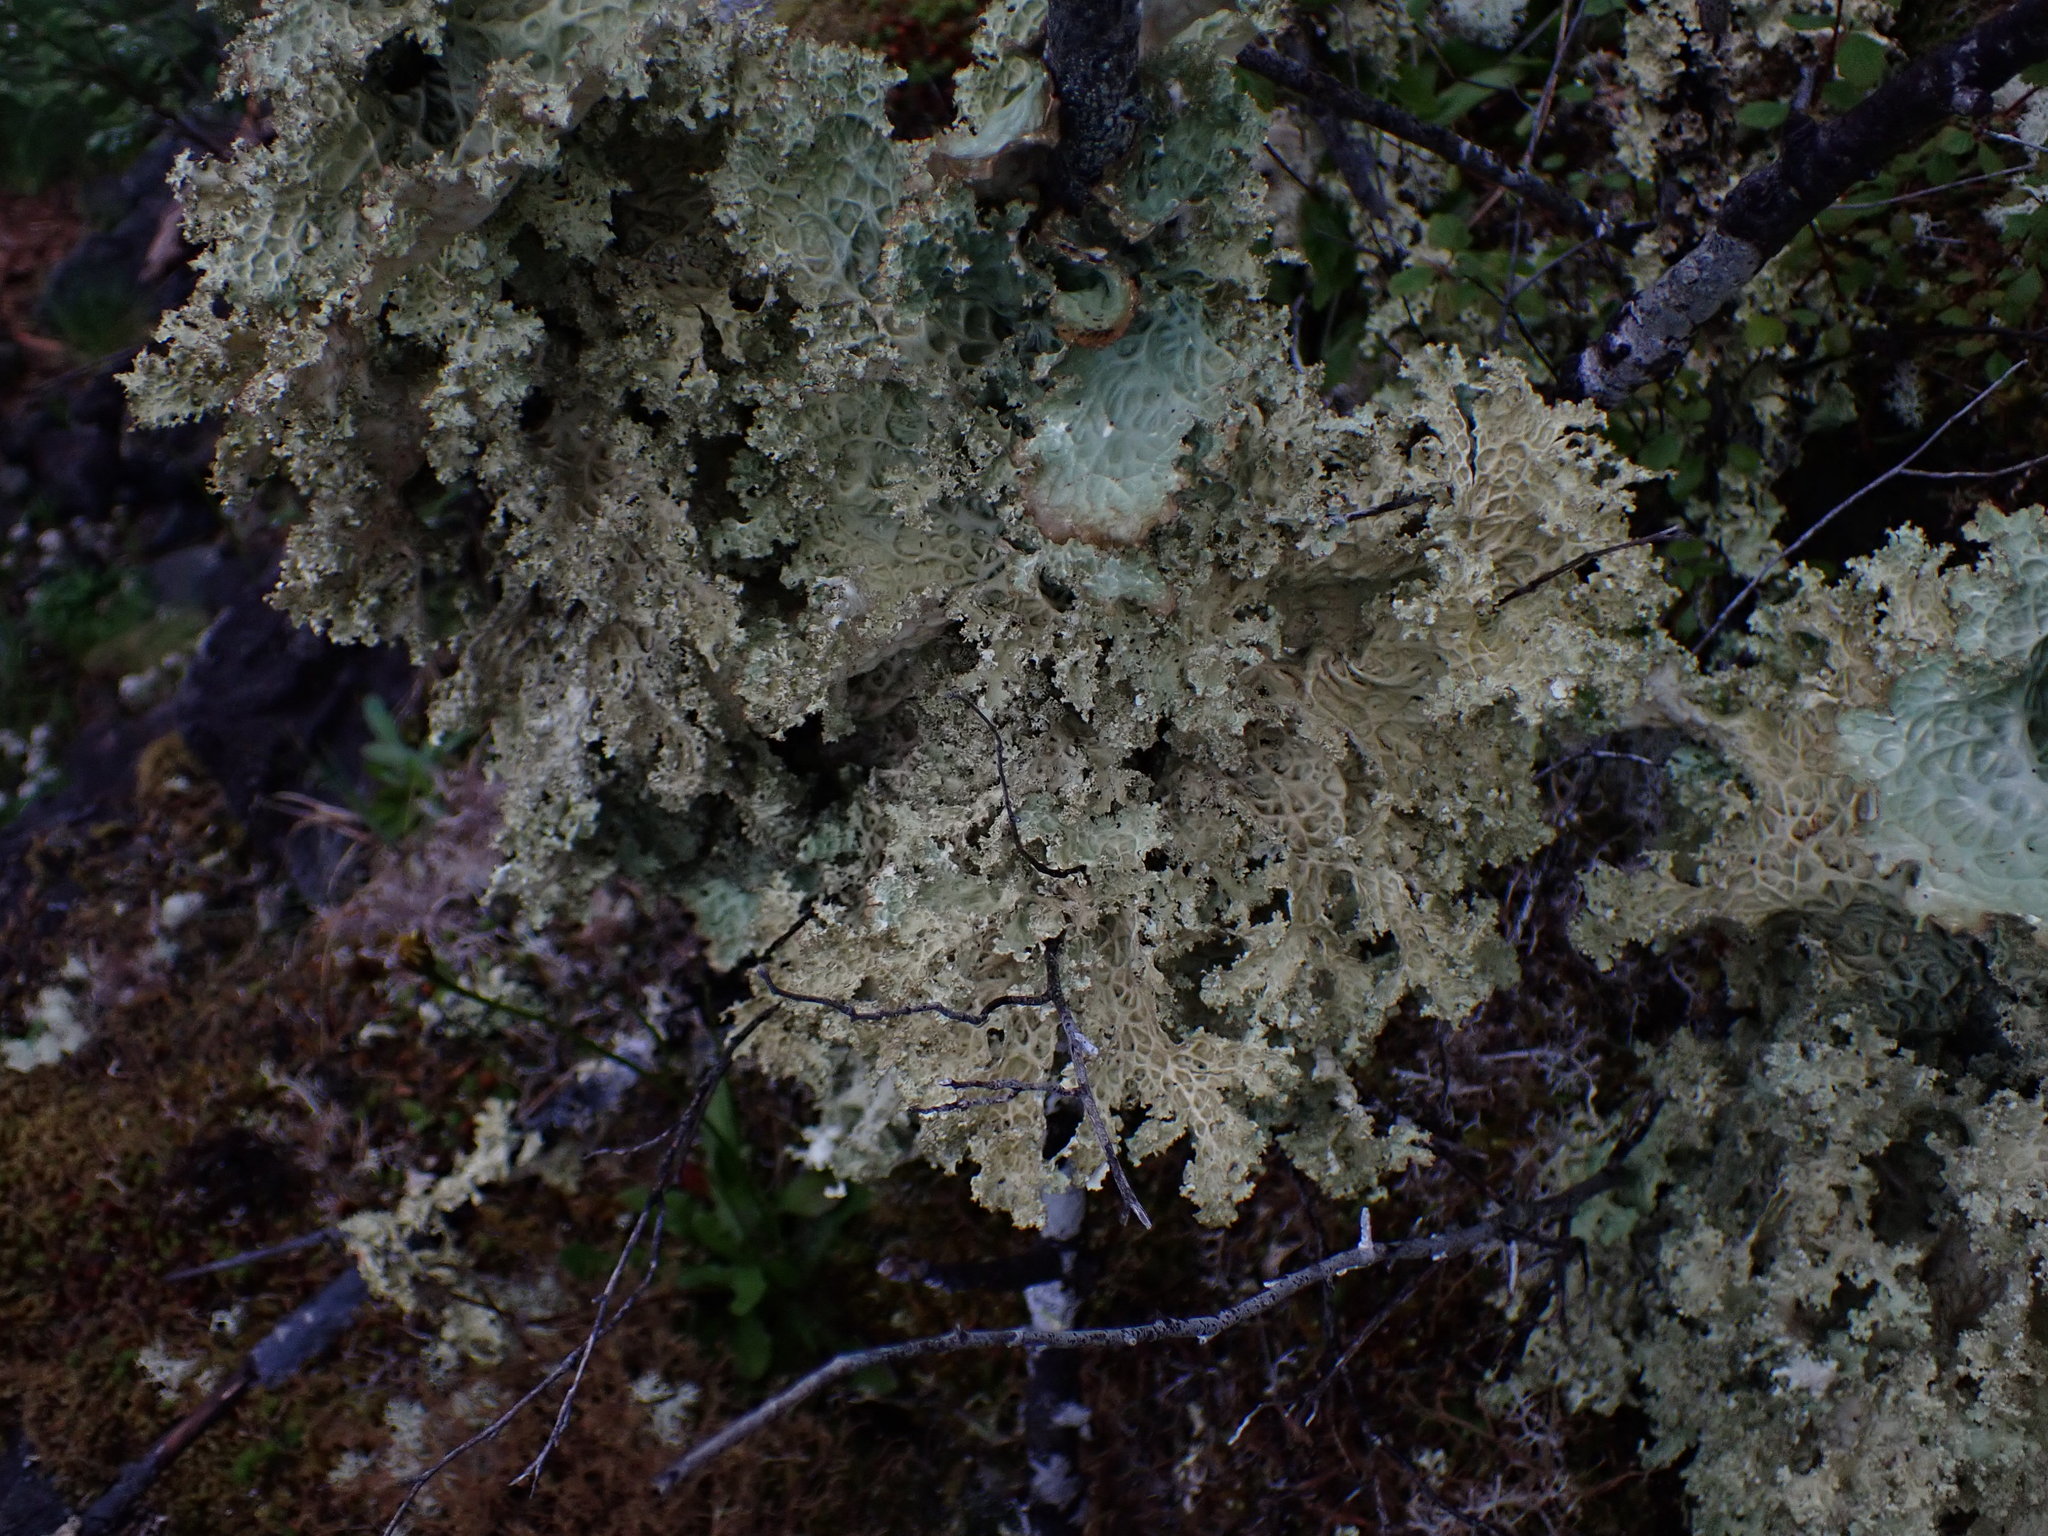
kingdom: Fungi
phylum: Ascomycota
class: Lecanoromycetes
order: Peltigerales
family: Lobariaceae
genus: Lobaria
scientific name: Lobaria oregana
